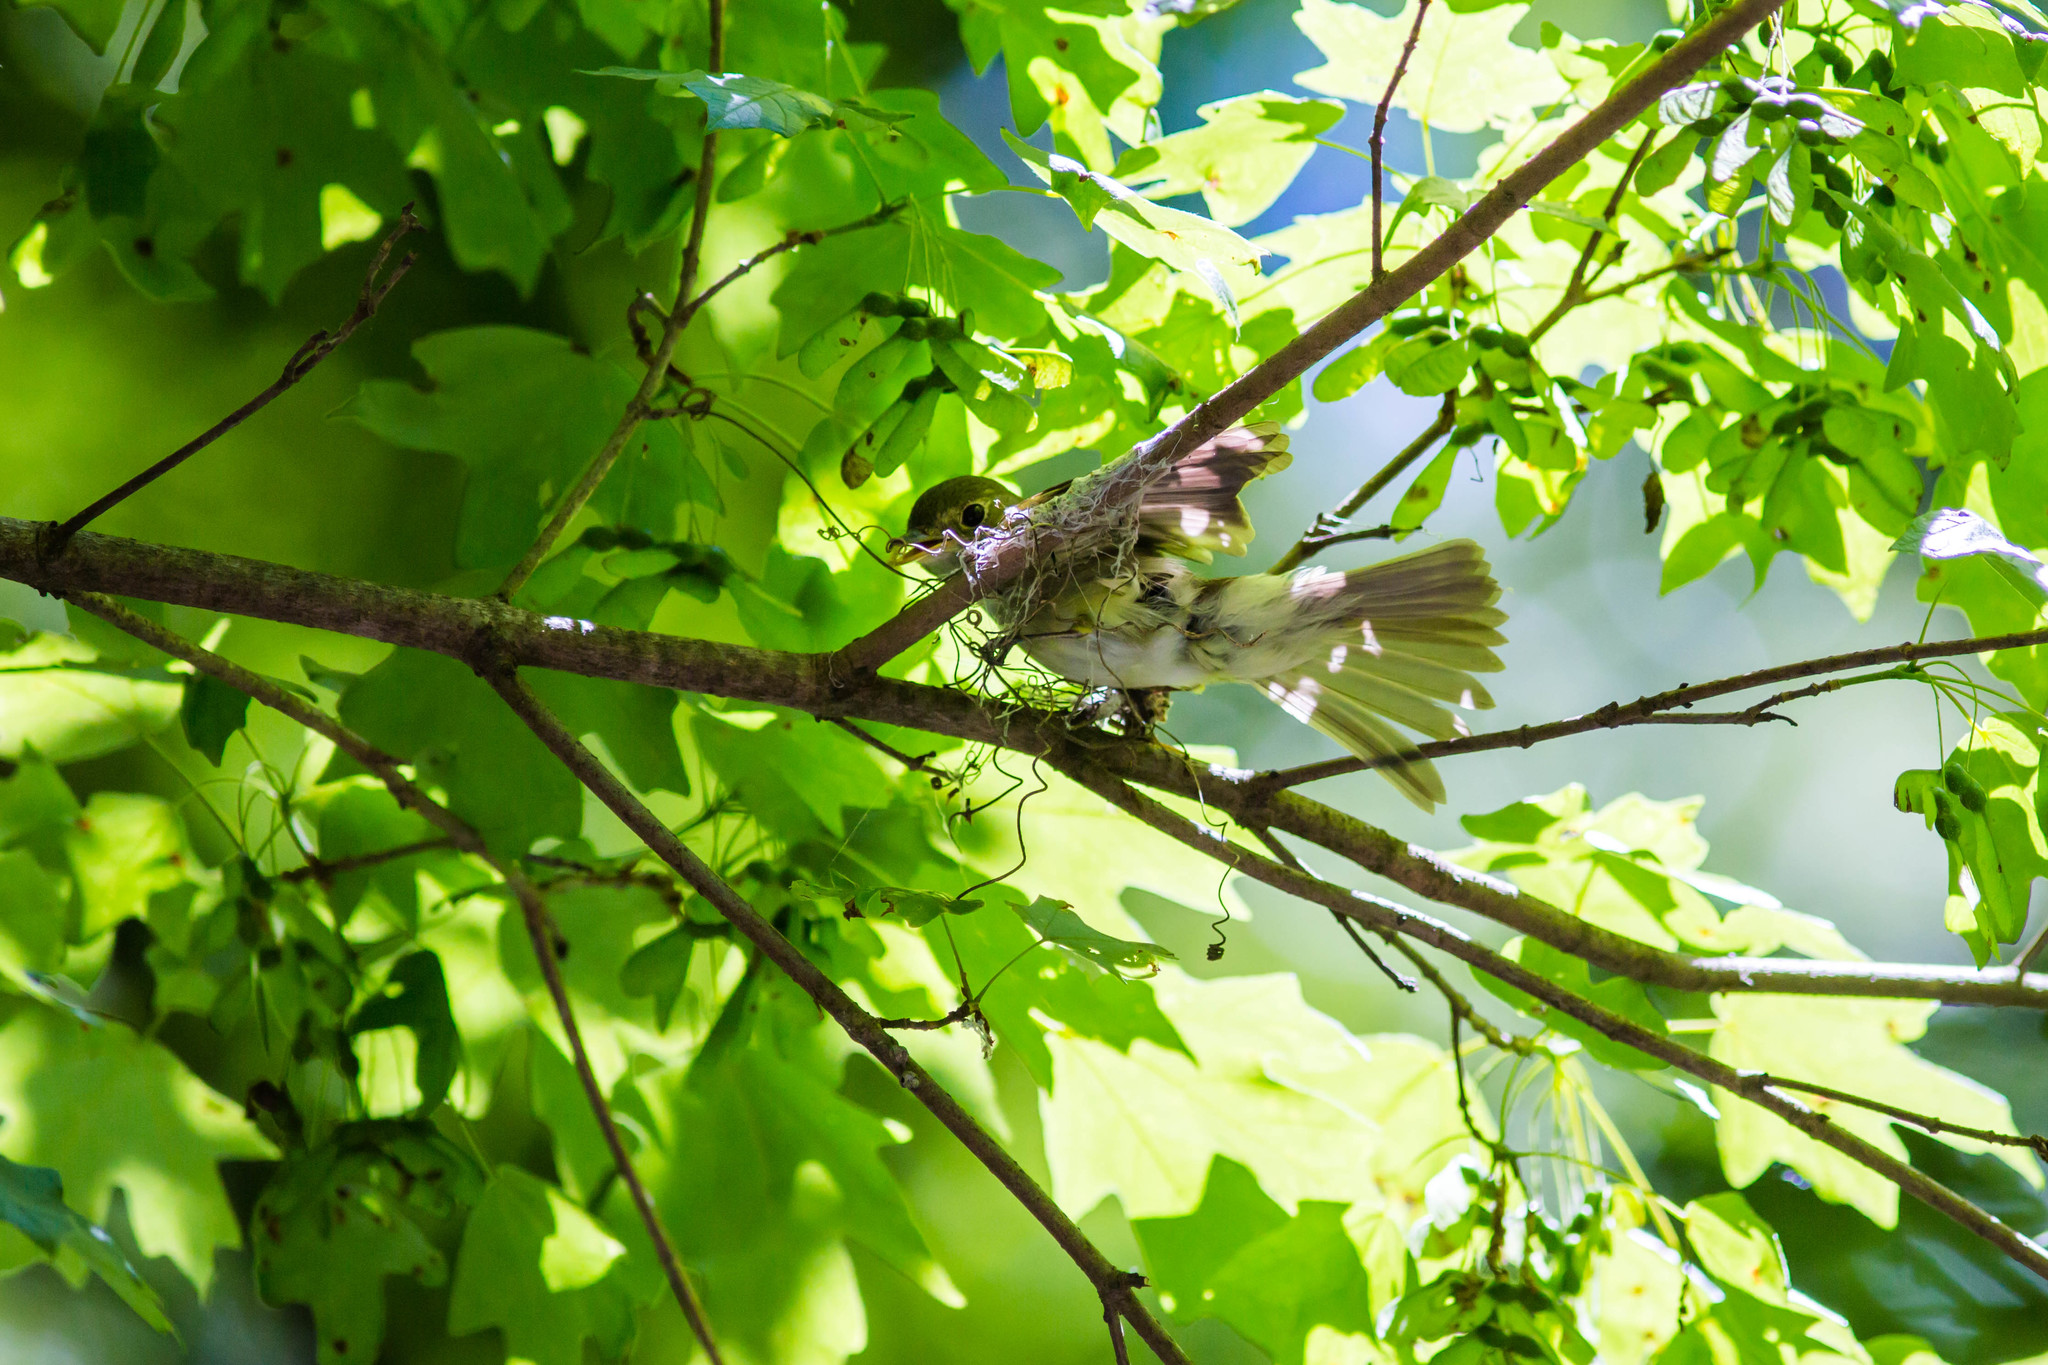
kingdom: Animalia
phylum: Chordata
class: Aves
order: Passeriformes
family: Tyrannidae
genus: Empidonax
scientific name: Empidonax virescens
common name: Acadian flycatcher
